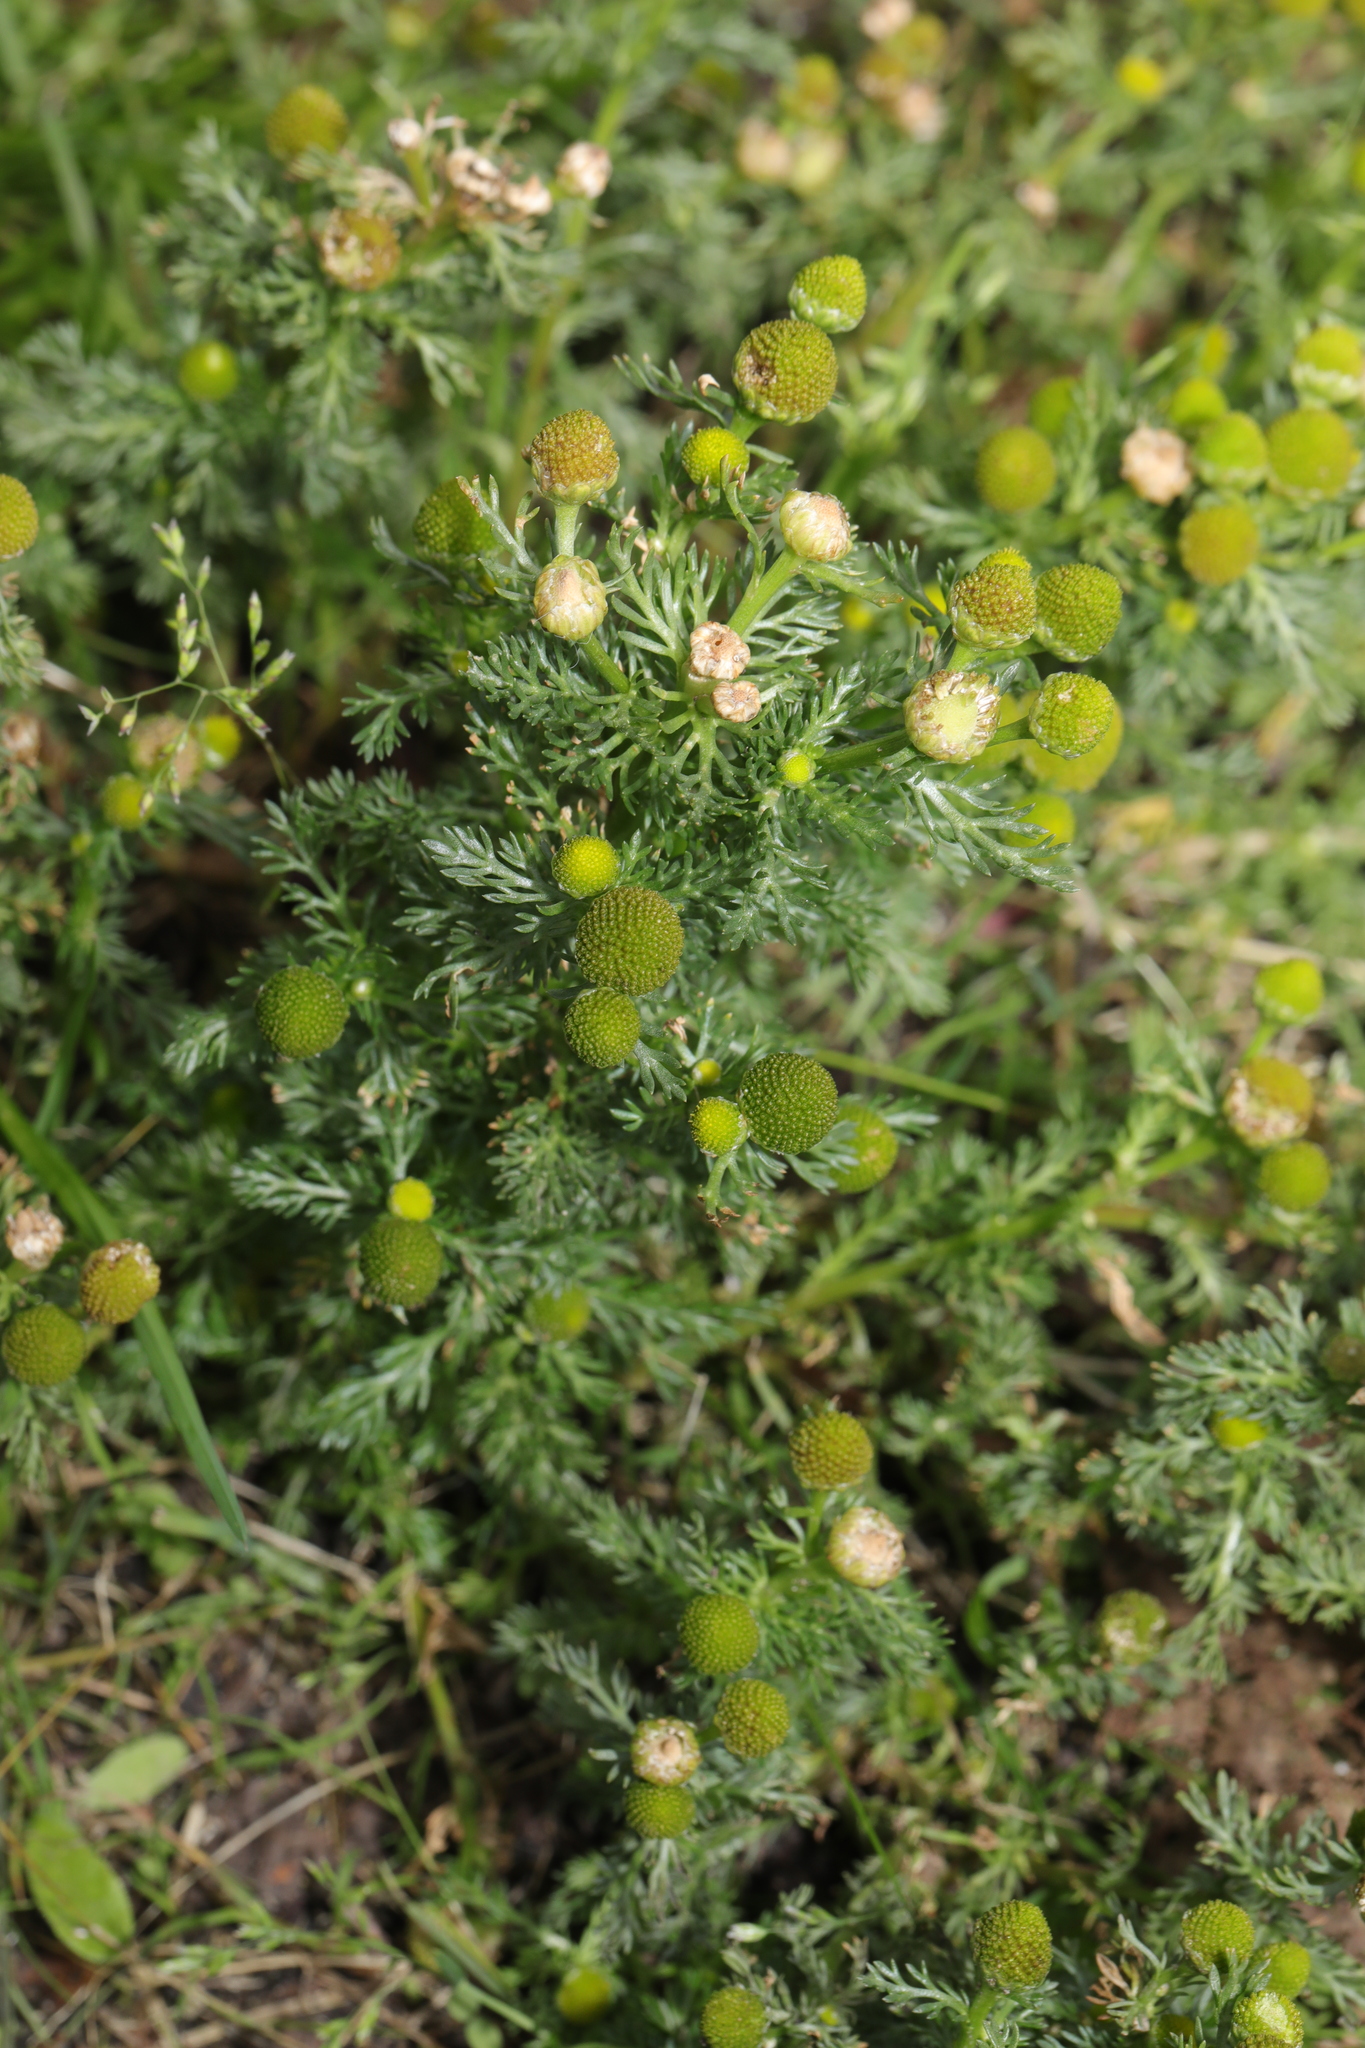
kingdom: Plantae
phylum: Tracheophyta
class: Magnoliopsida
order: Asterales
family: Asteraceae
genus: Matricaria
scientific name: Matricaria discoidea
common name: Disc mayweed
